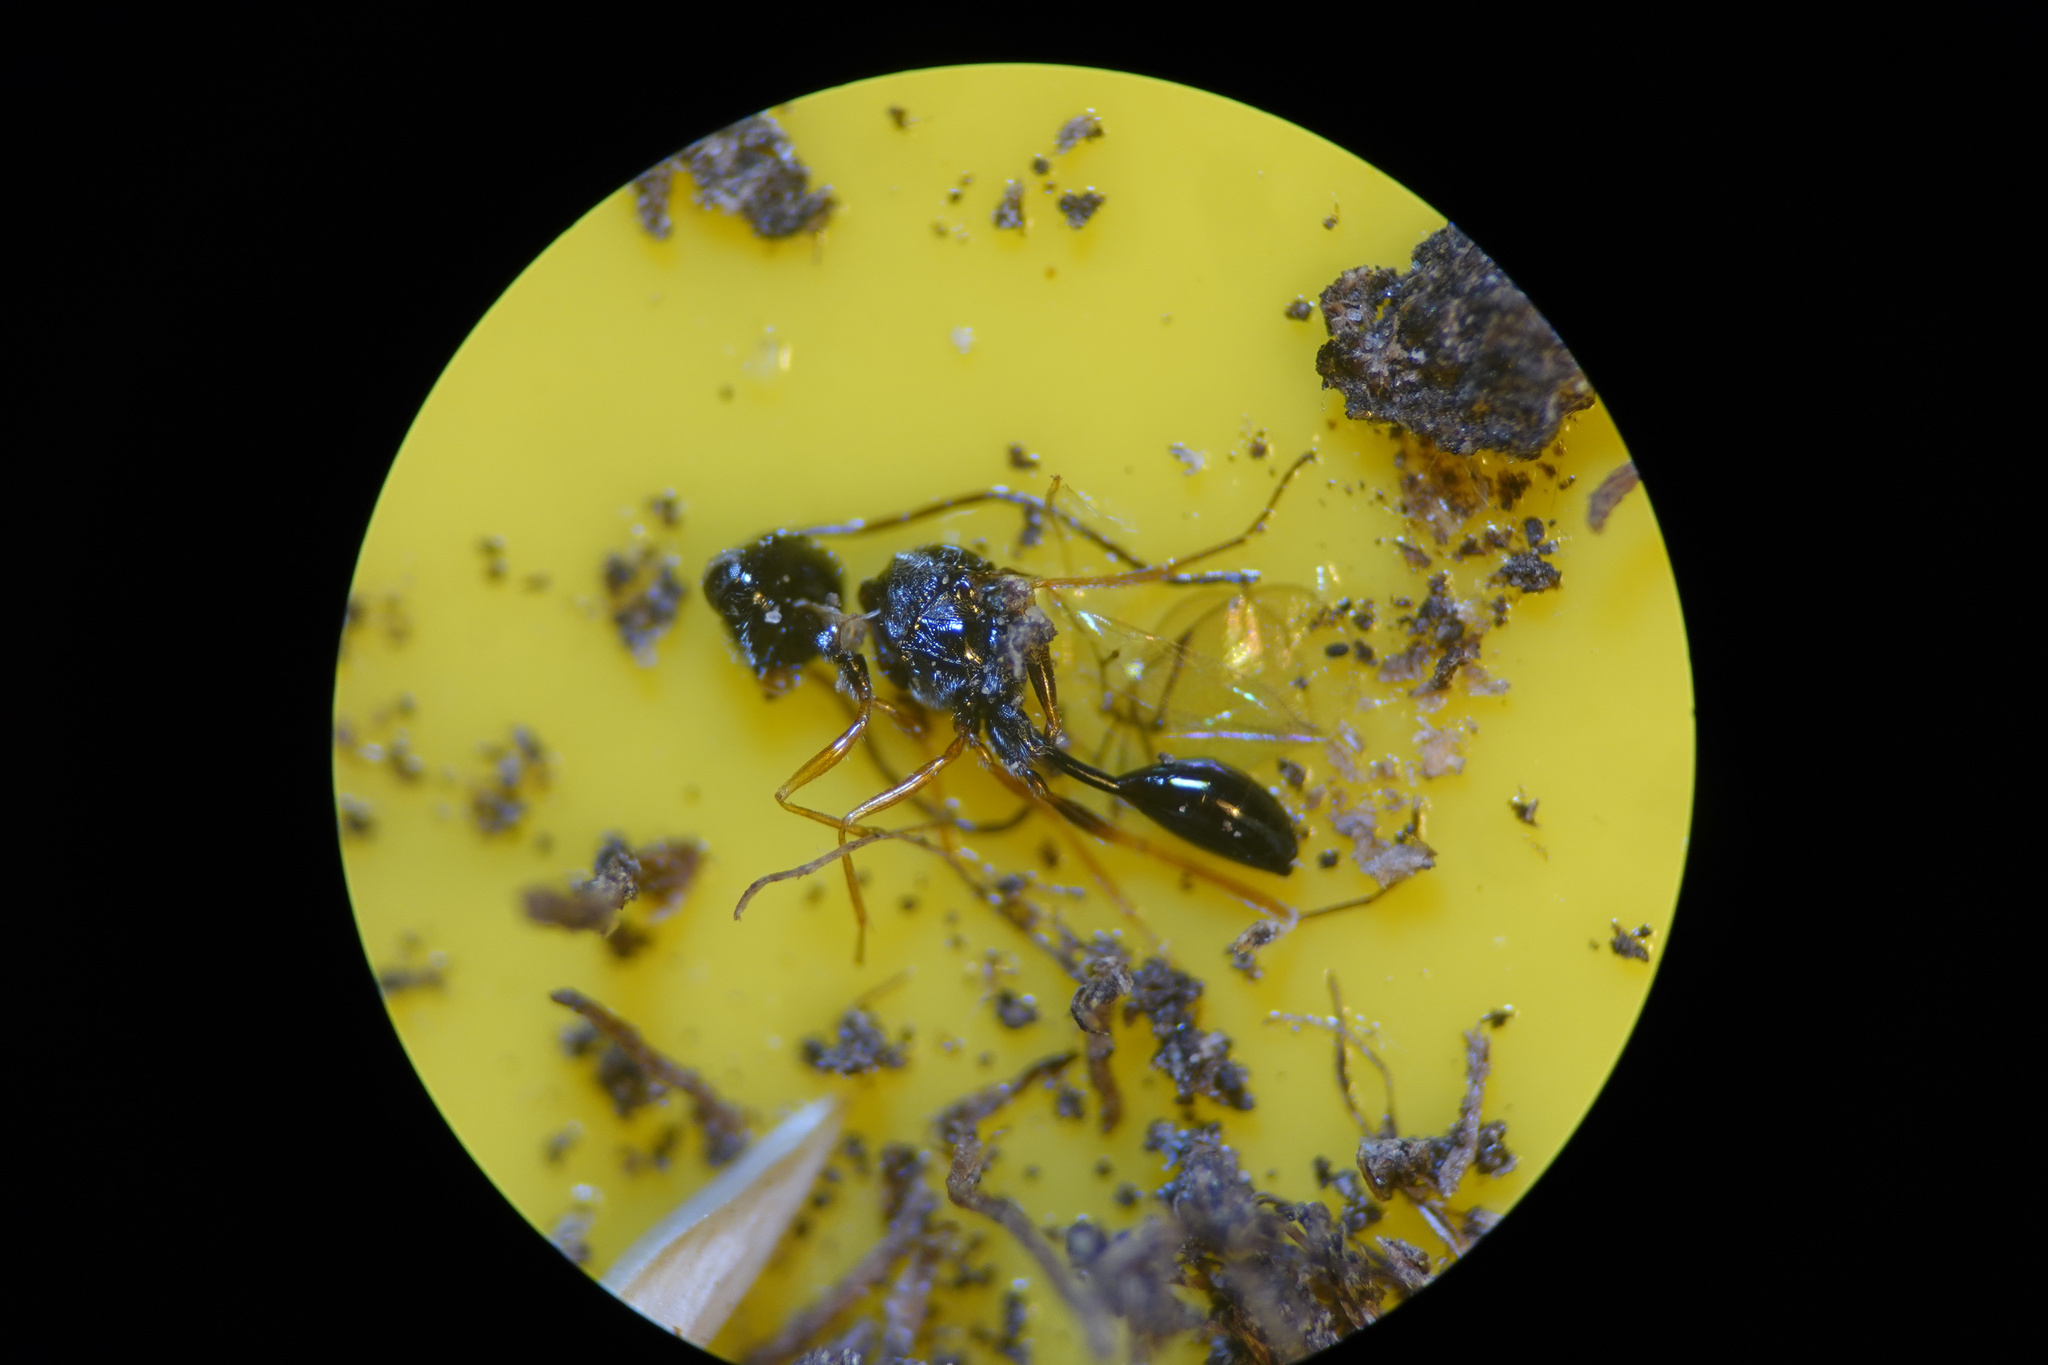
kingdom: Animalia
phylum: Arthropoda
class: Insecta
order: Hymenoptera
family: Figitidae
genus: Anacharis
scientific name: Anacharis zealandica
